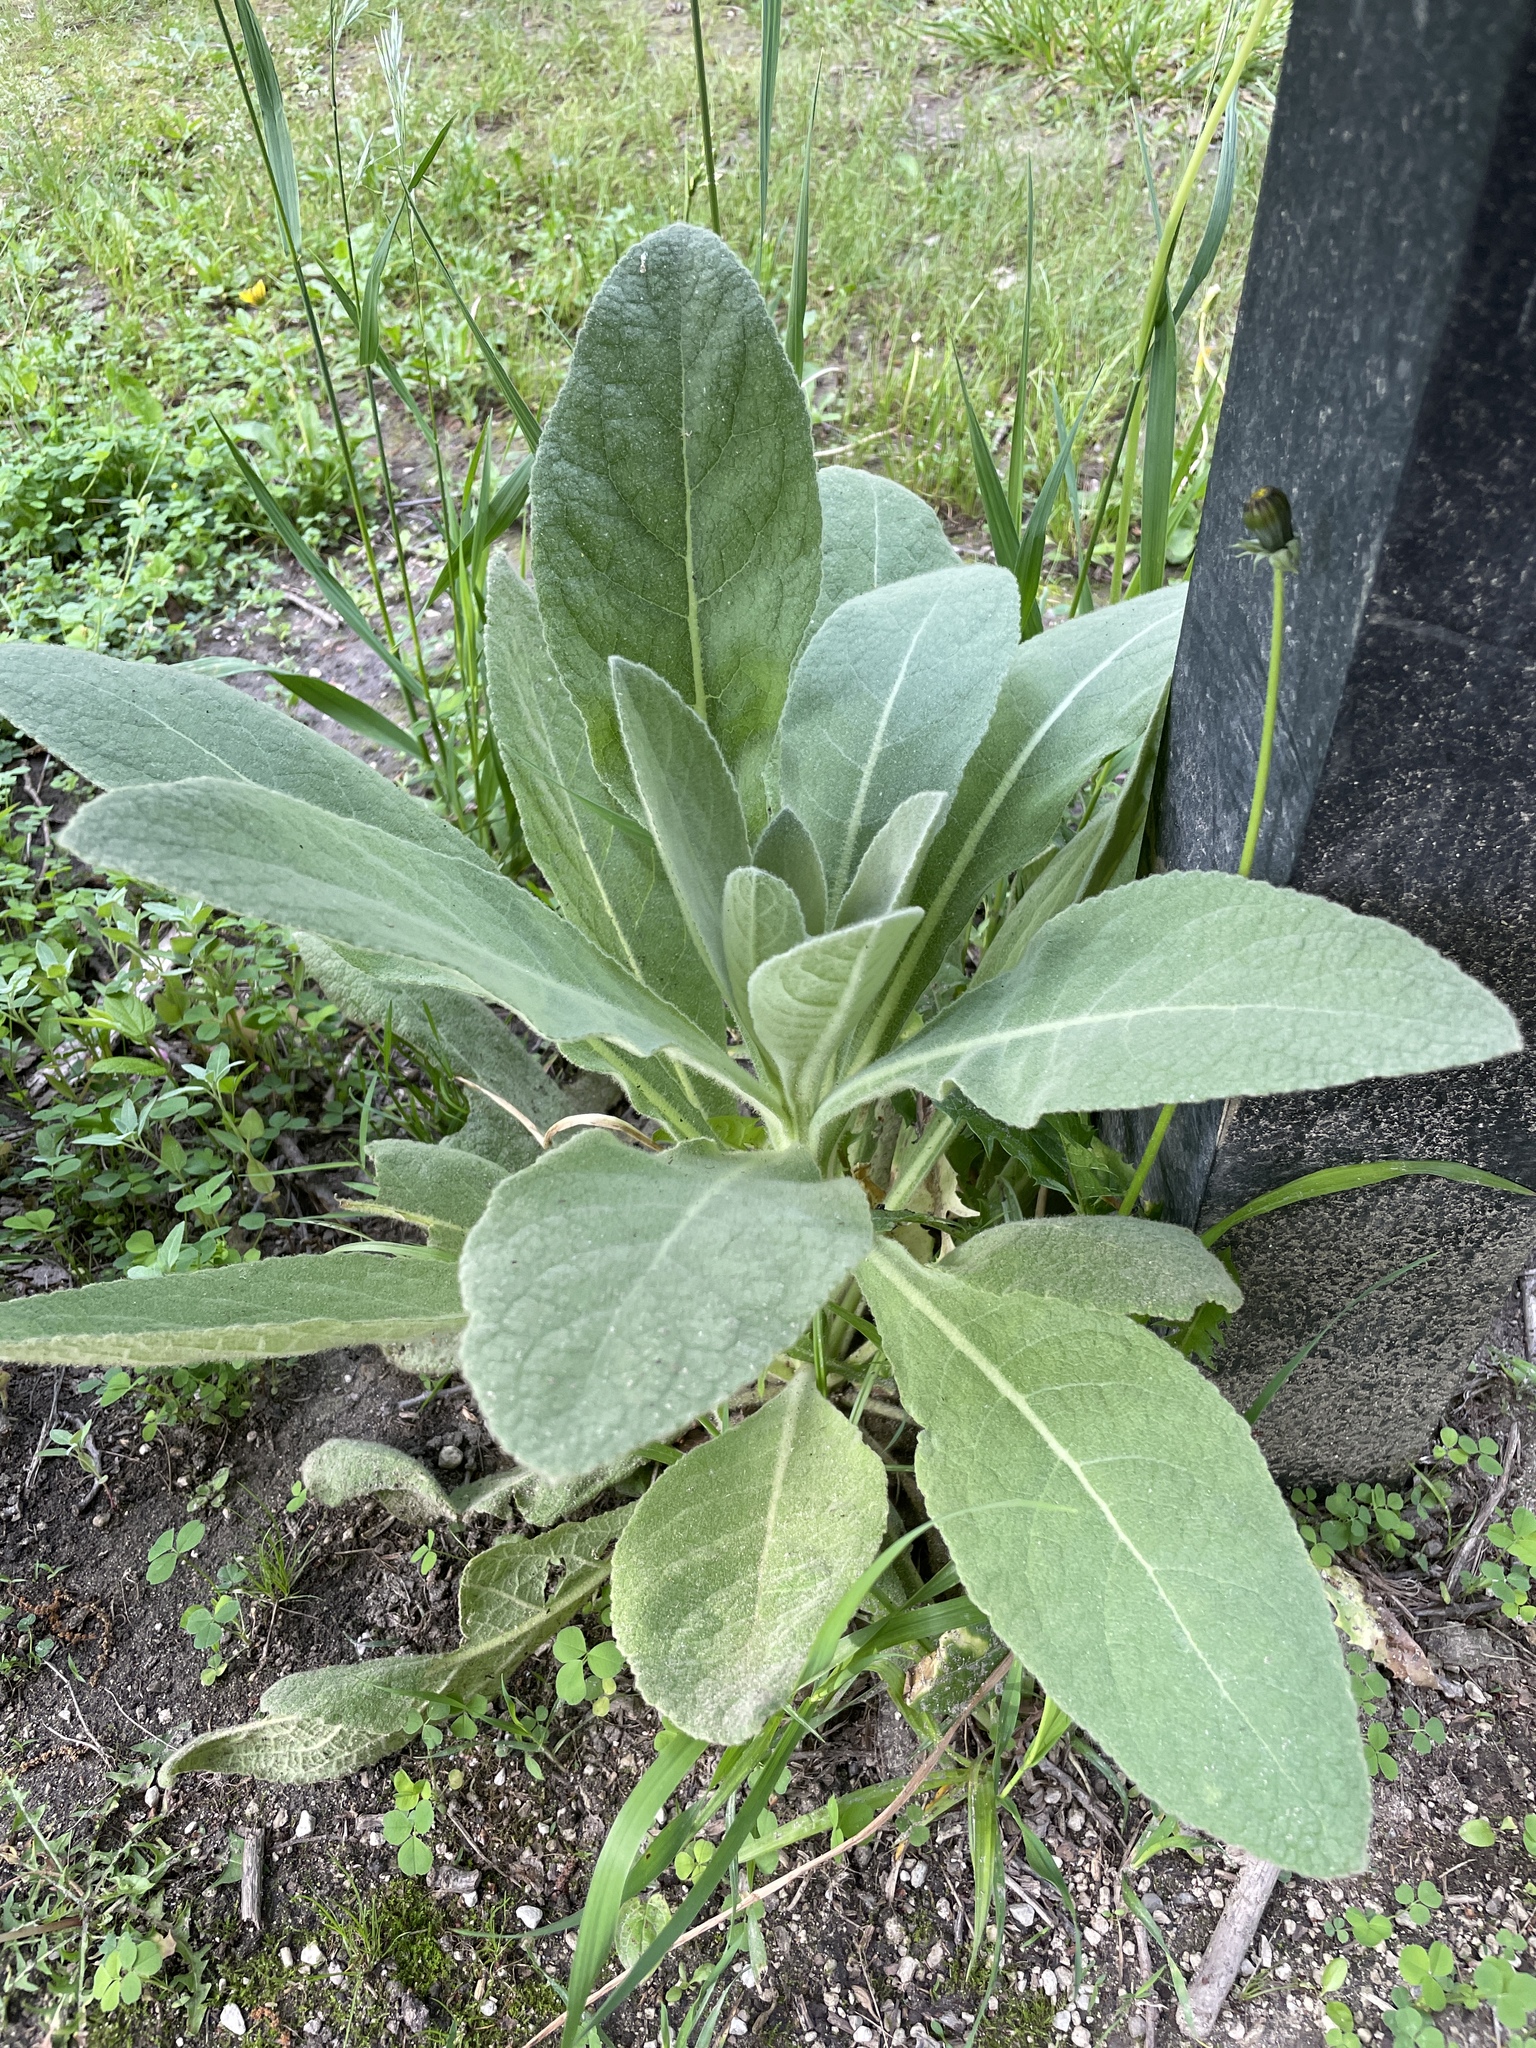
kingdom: Plantae
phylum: Tracheophyta
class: Magnoliopsida
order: Lamiales
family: Scrophulariaceae
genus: Verbascum
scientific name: Verbascum thapsus
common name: Common mullein
